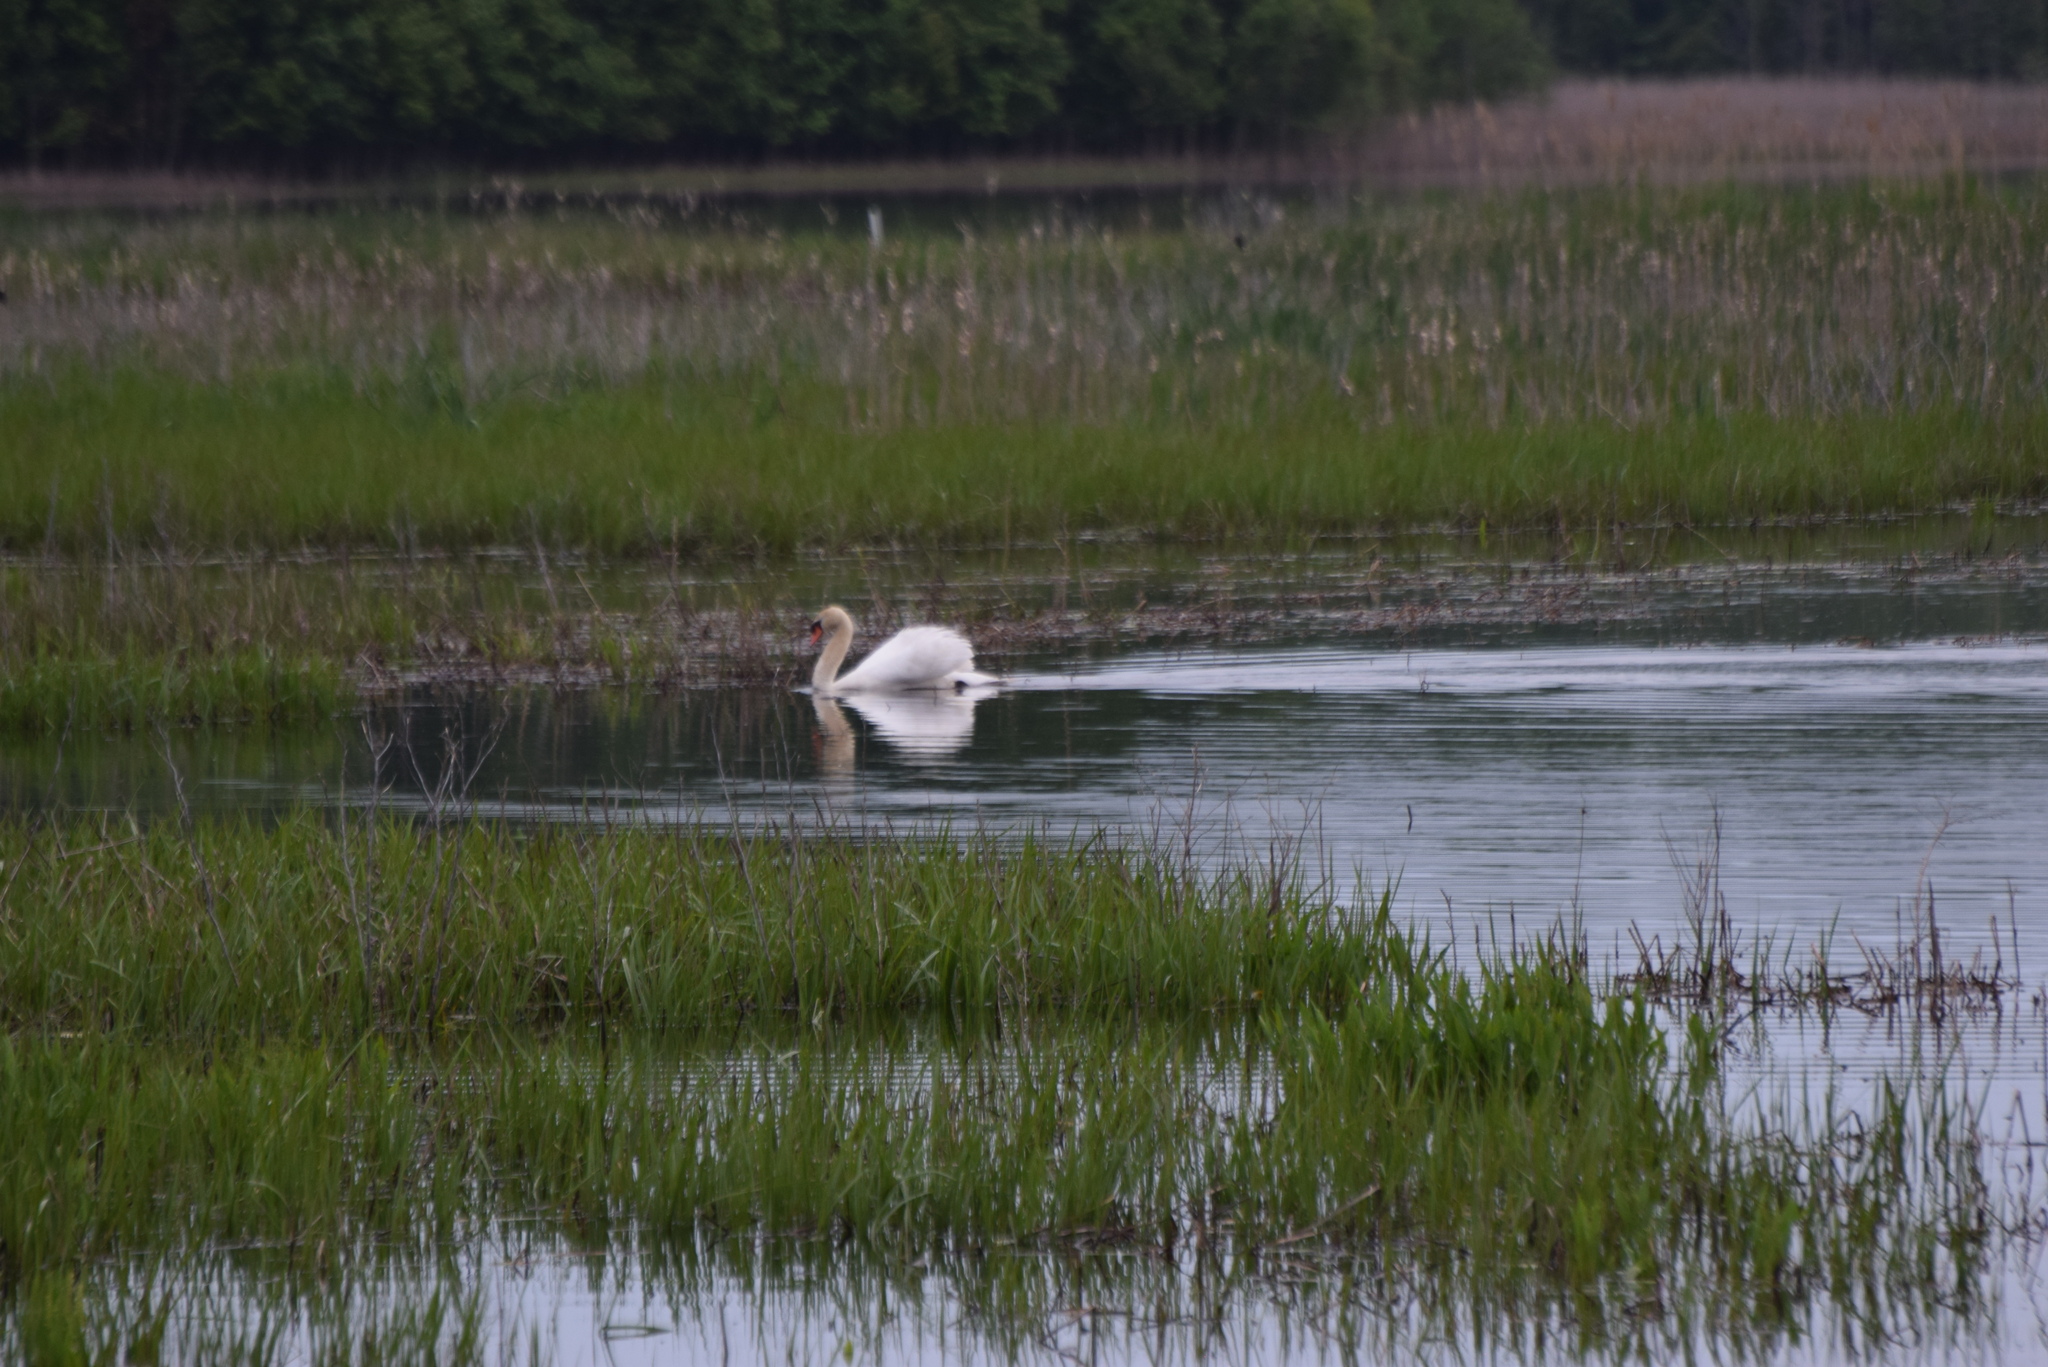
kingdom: Animalia
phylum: Chordata
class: Aves
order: Anseriformes
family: Anatidae
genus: Cygnus
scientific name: Cygnus olor
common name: Mute swan
